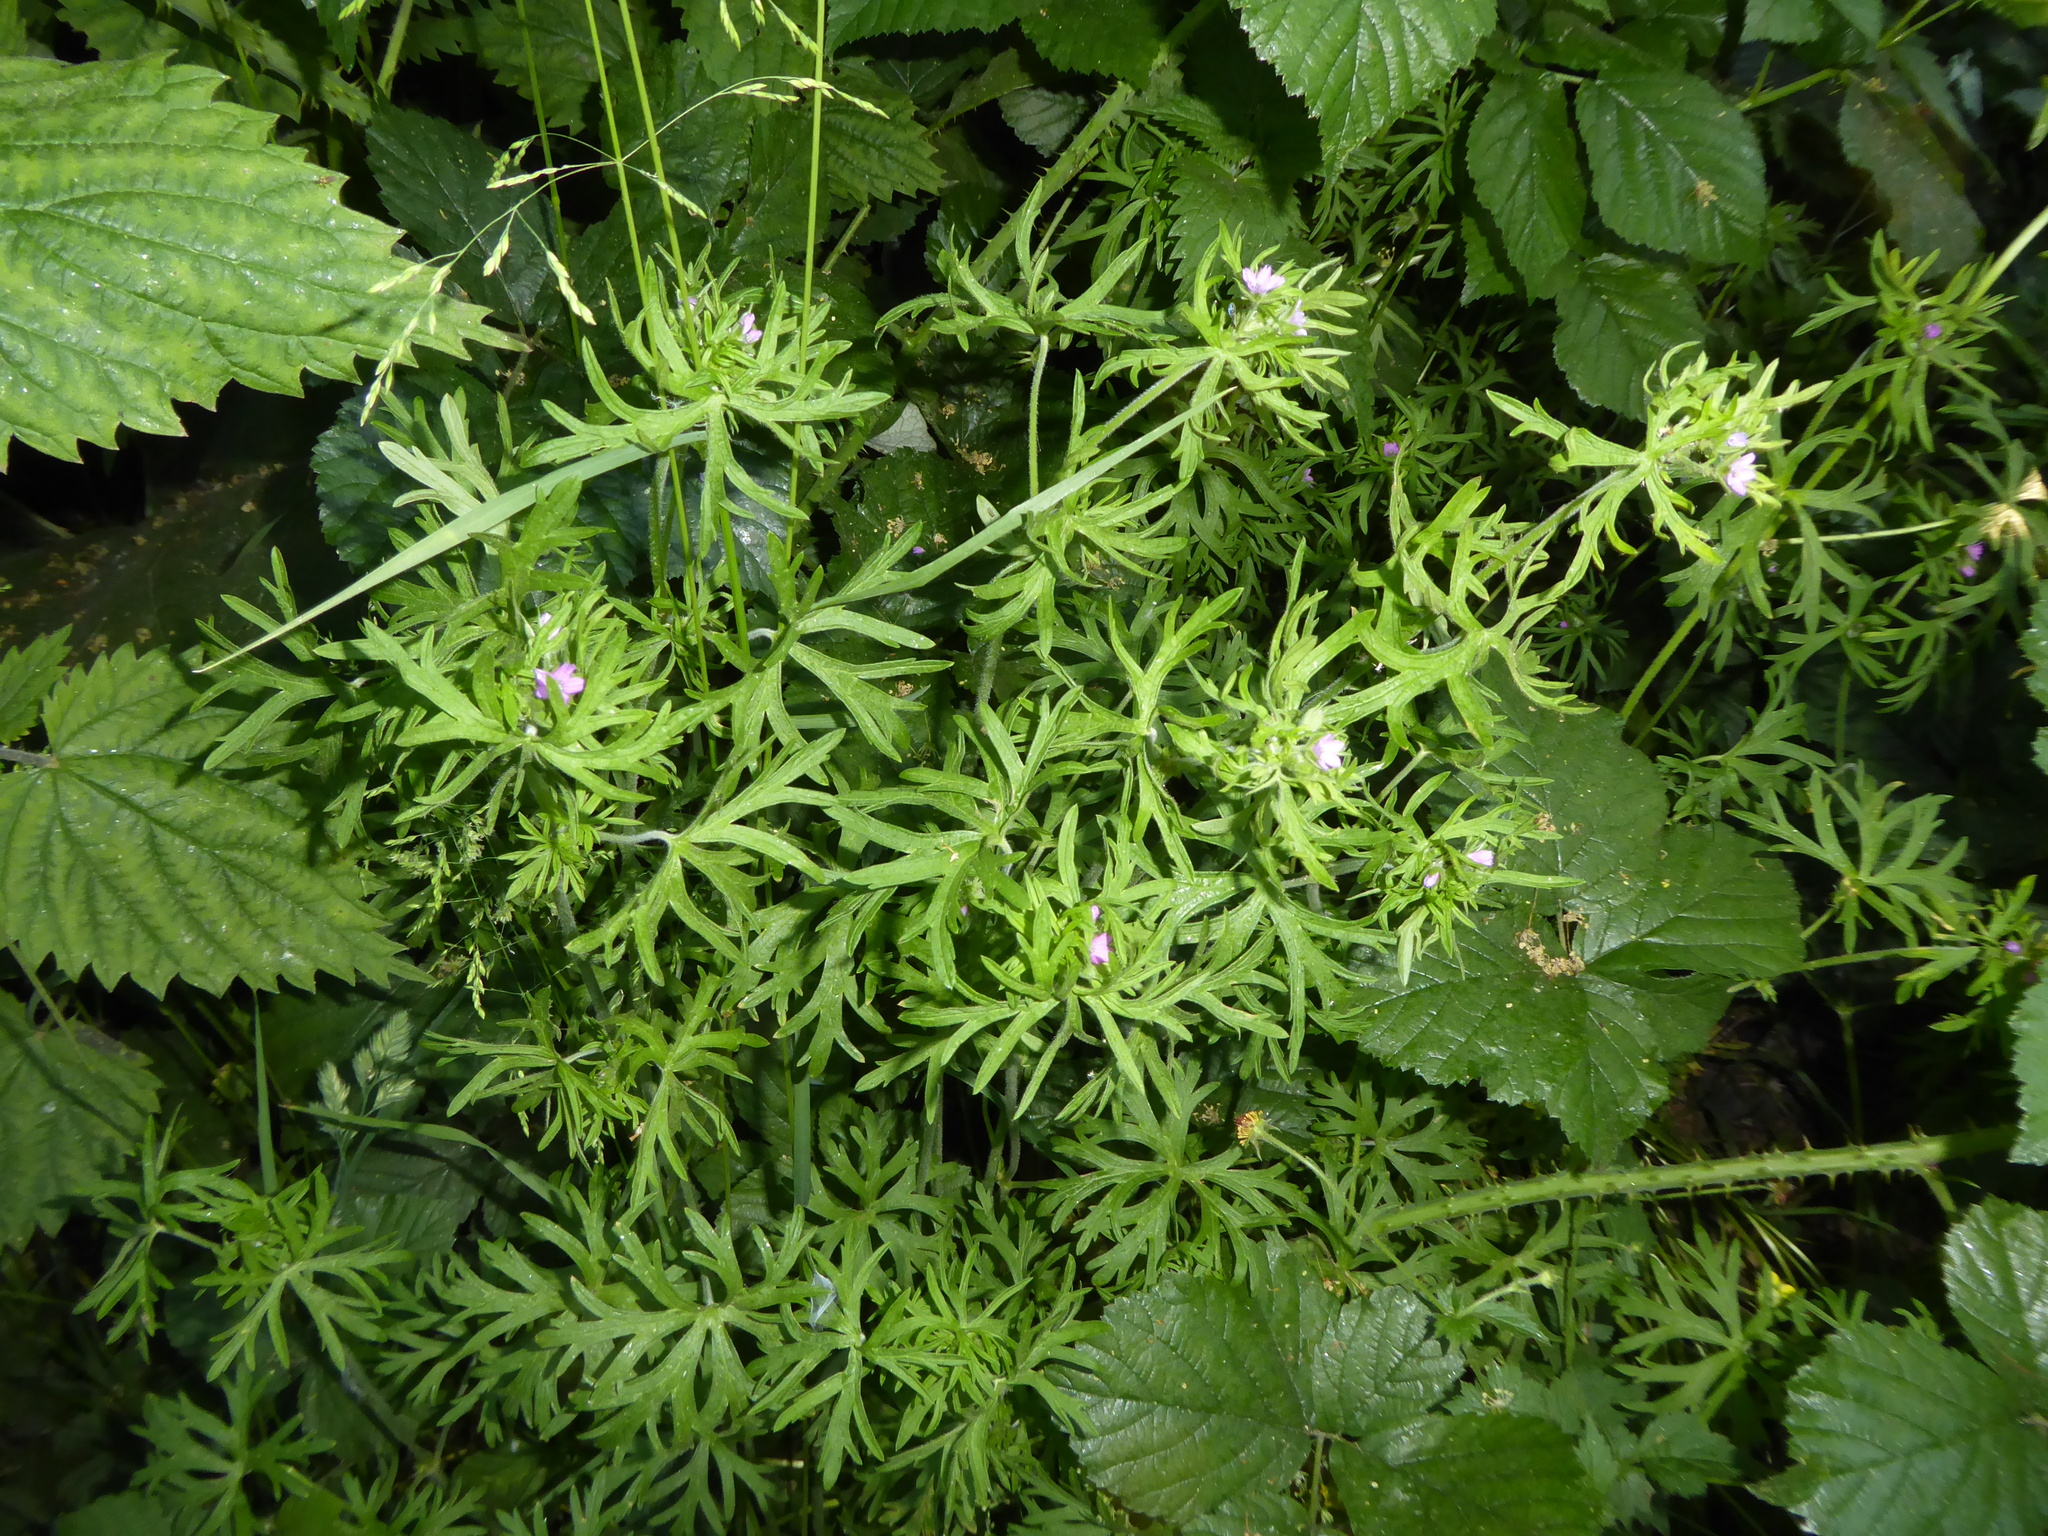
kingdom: Plantae
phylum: Tracheophyta
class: Magnoliopsida
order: Geraniales
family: Geraniaceae
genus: Geranium
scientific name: Geranium dissectum
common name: Cut-leaved crane's-bill
